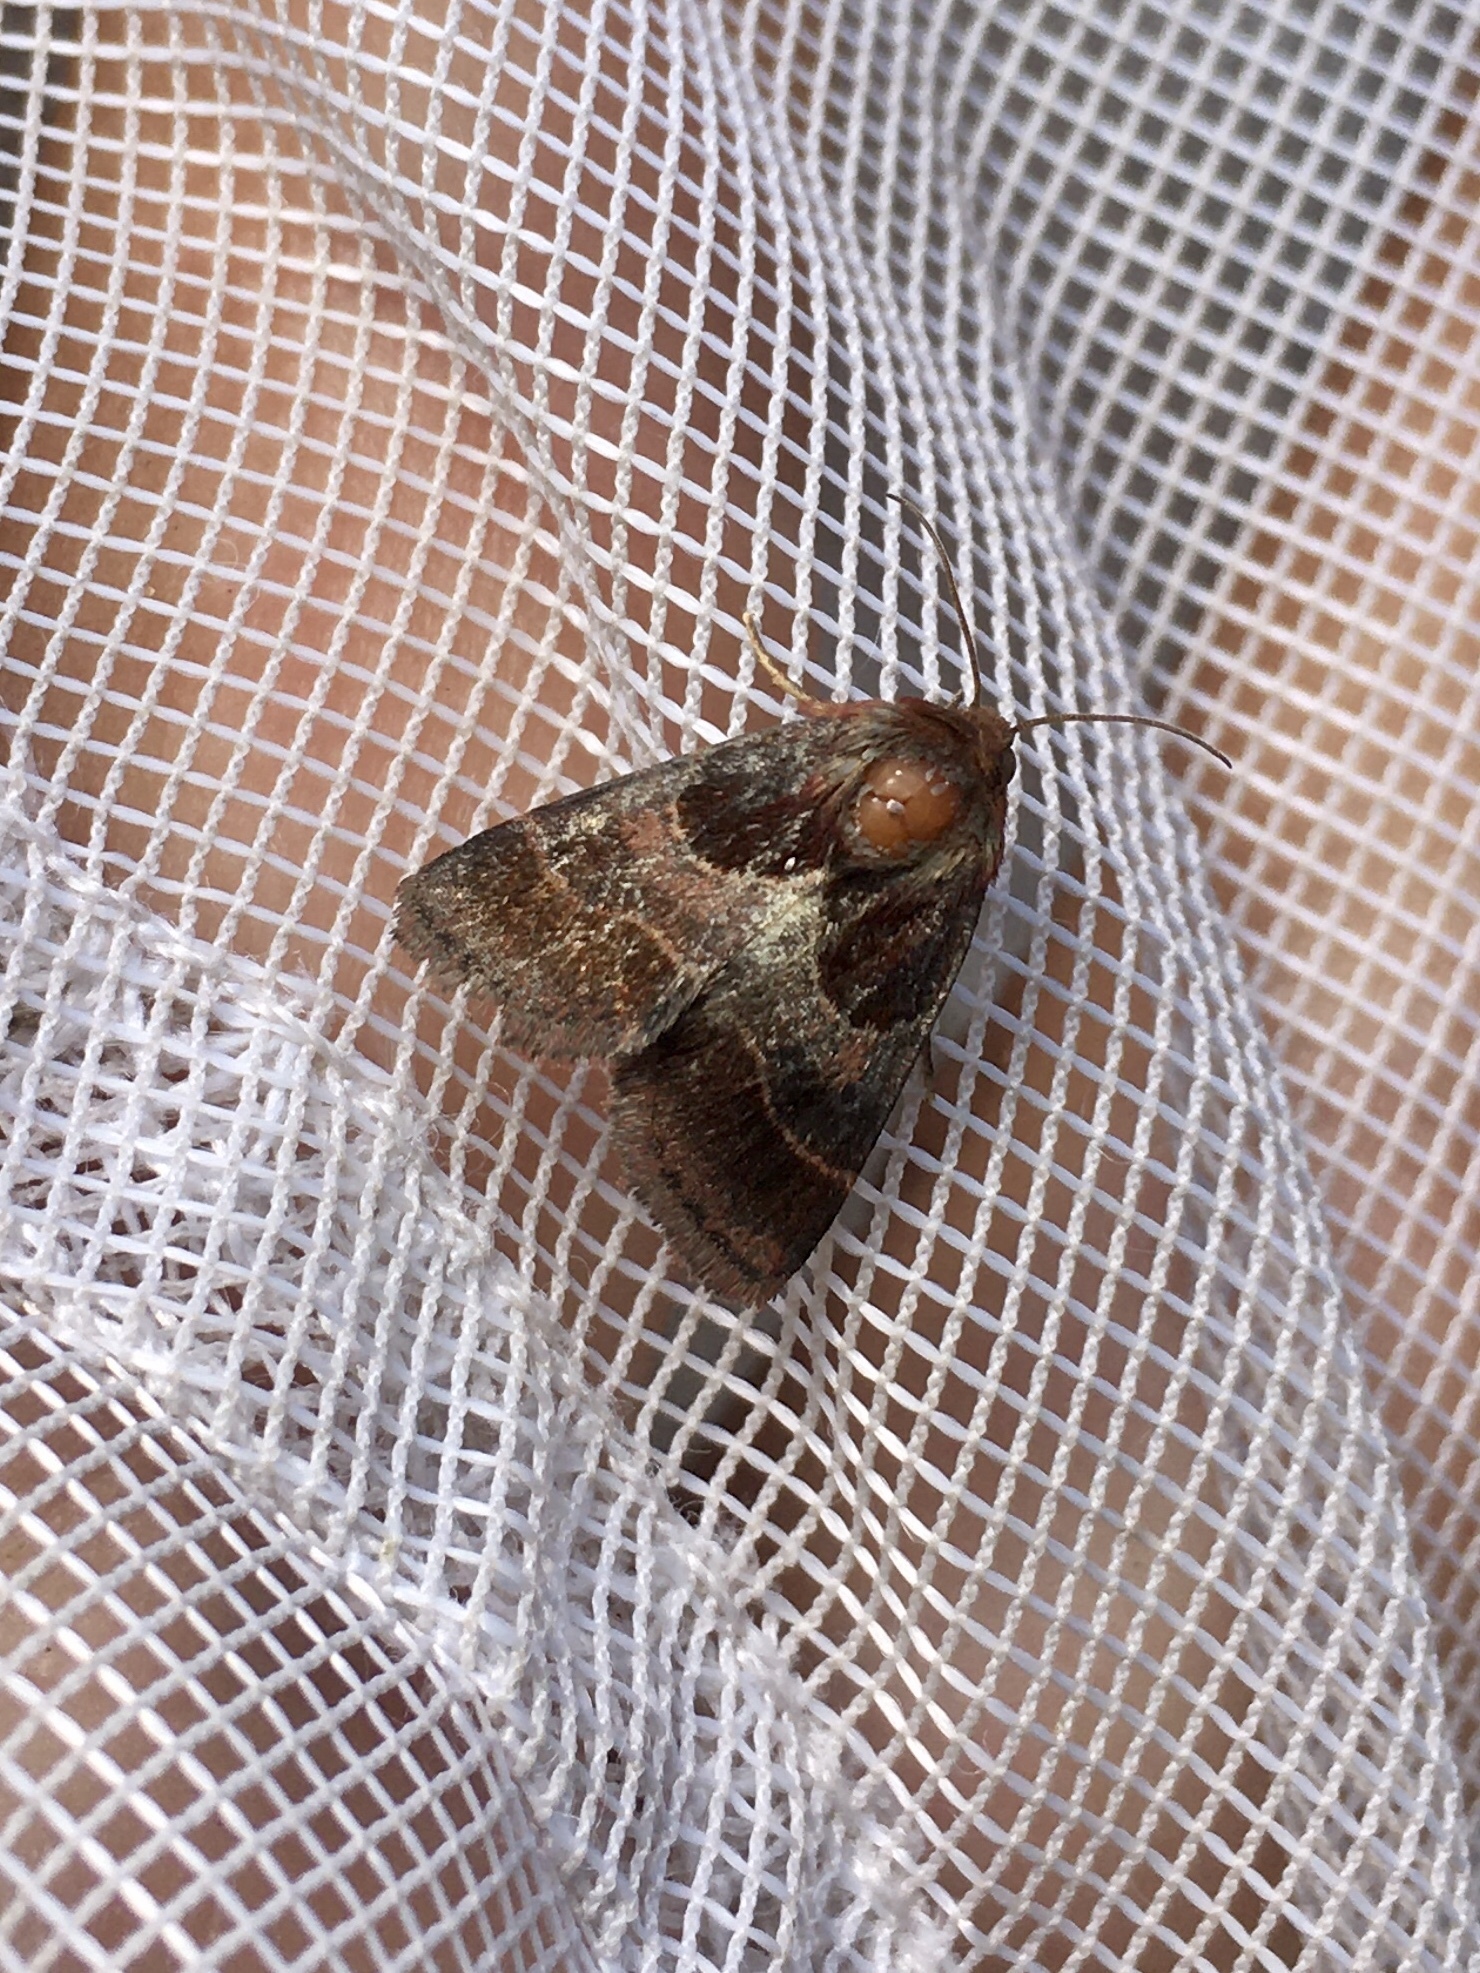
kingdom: Animalia
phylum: Arthropoda
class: Insecta
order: Lepidoptera
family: Noctuidae
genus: Schinia
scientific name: Schinia arcigera
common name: Arcigera flower moth
